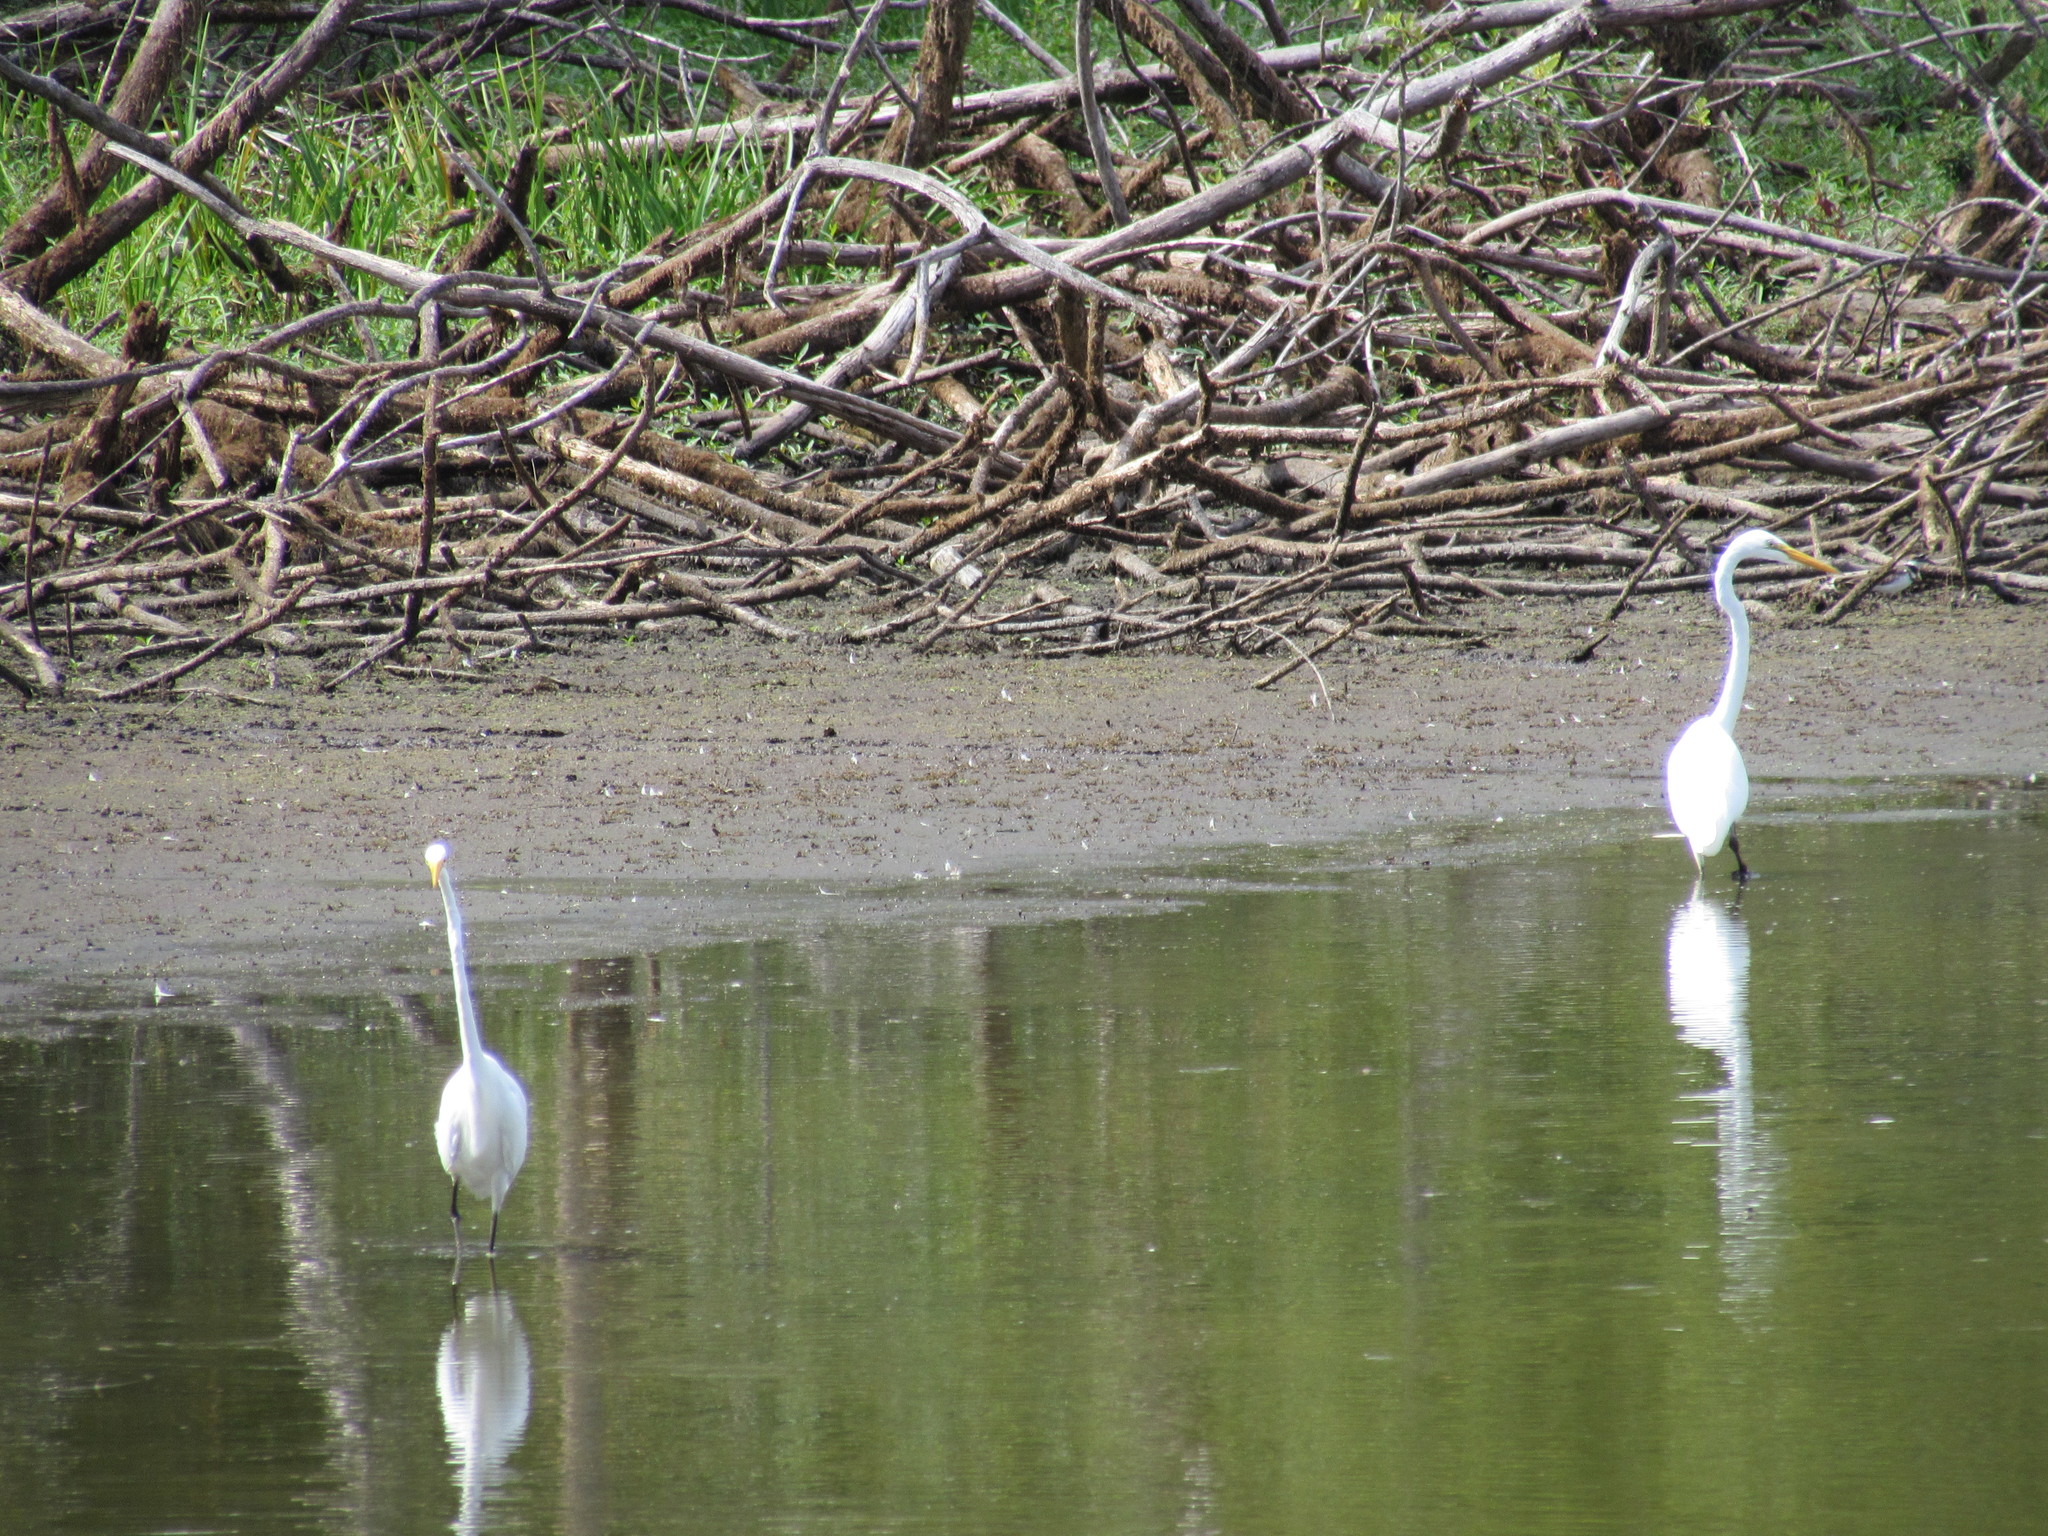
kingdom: Animalia
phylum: Chordata
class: Aves
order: Pelecaniformes
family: Ardeidae
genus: Ardea
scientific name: Ardea alba
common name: Great egret
